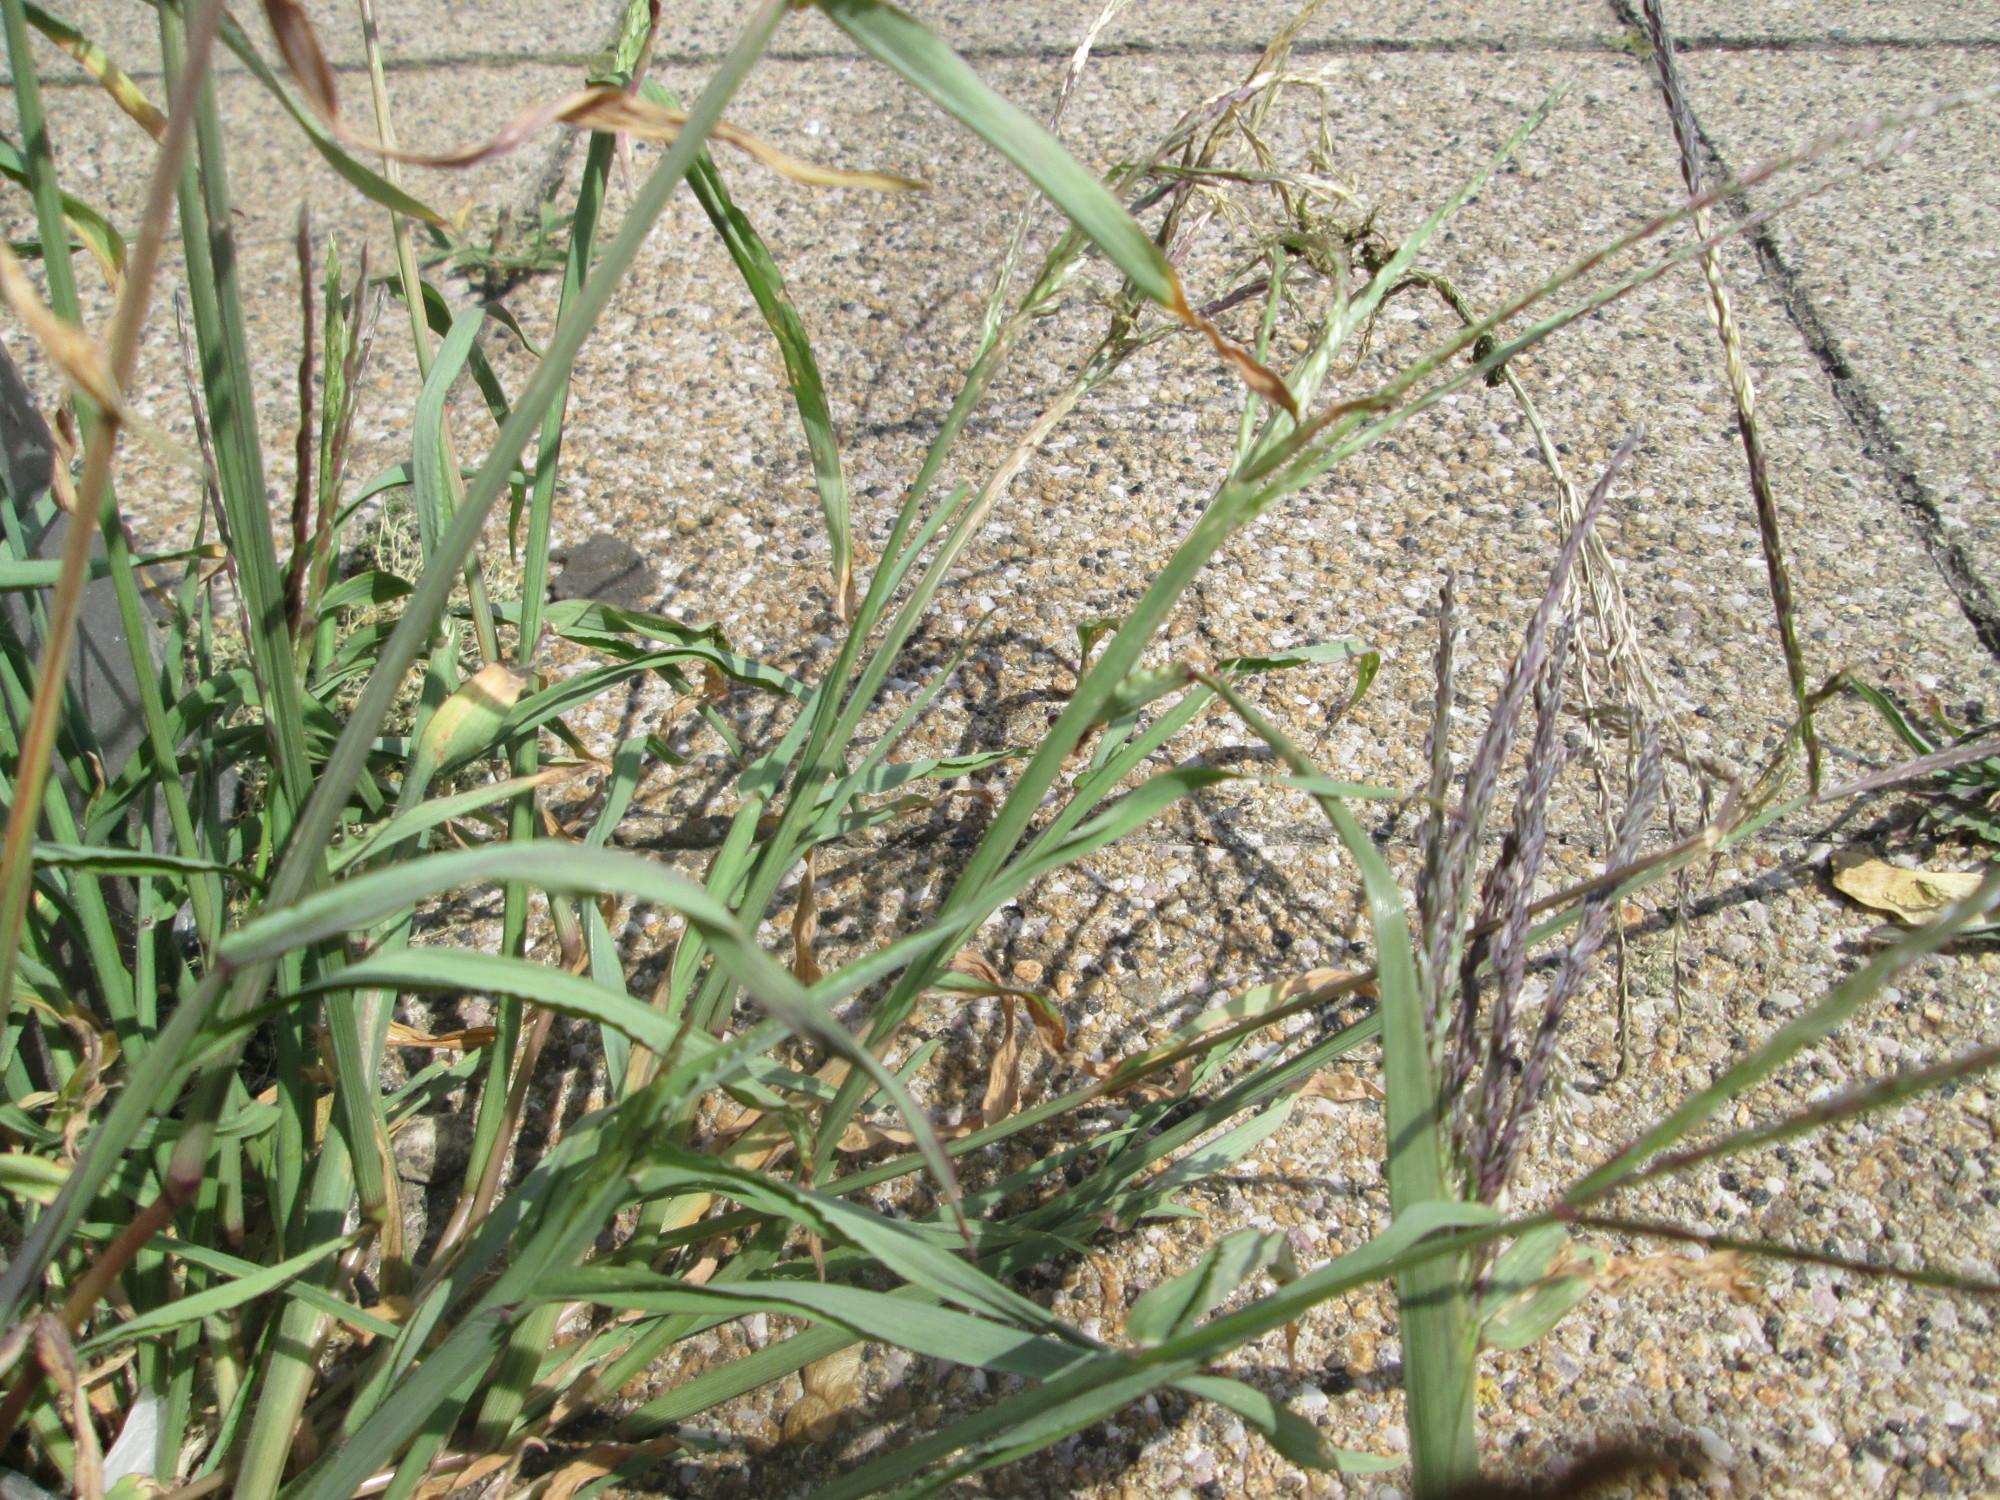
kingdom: Plantae
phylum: Tracheophyta
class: Liliopsida
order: Poales
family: Poaceae
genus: Digitaria
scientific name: Digitaria sanguinalis
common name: Hairy crabgrass
